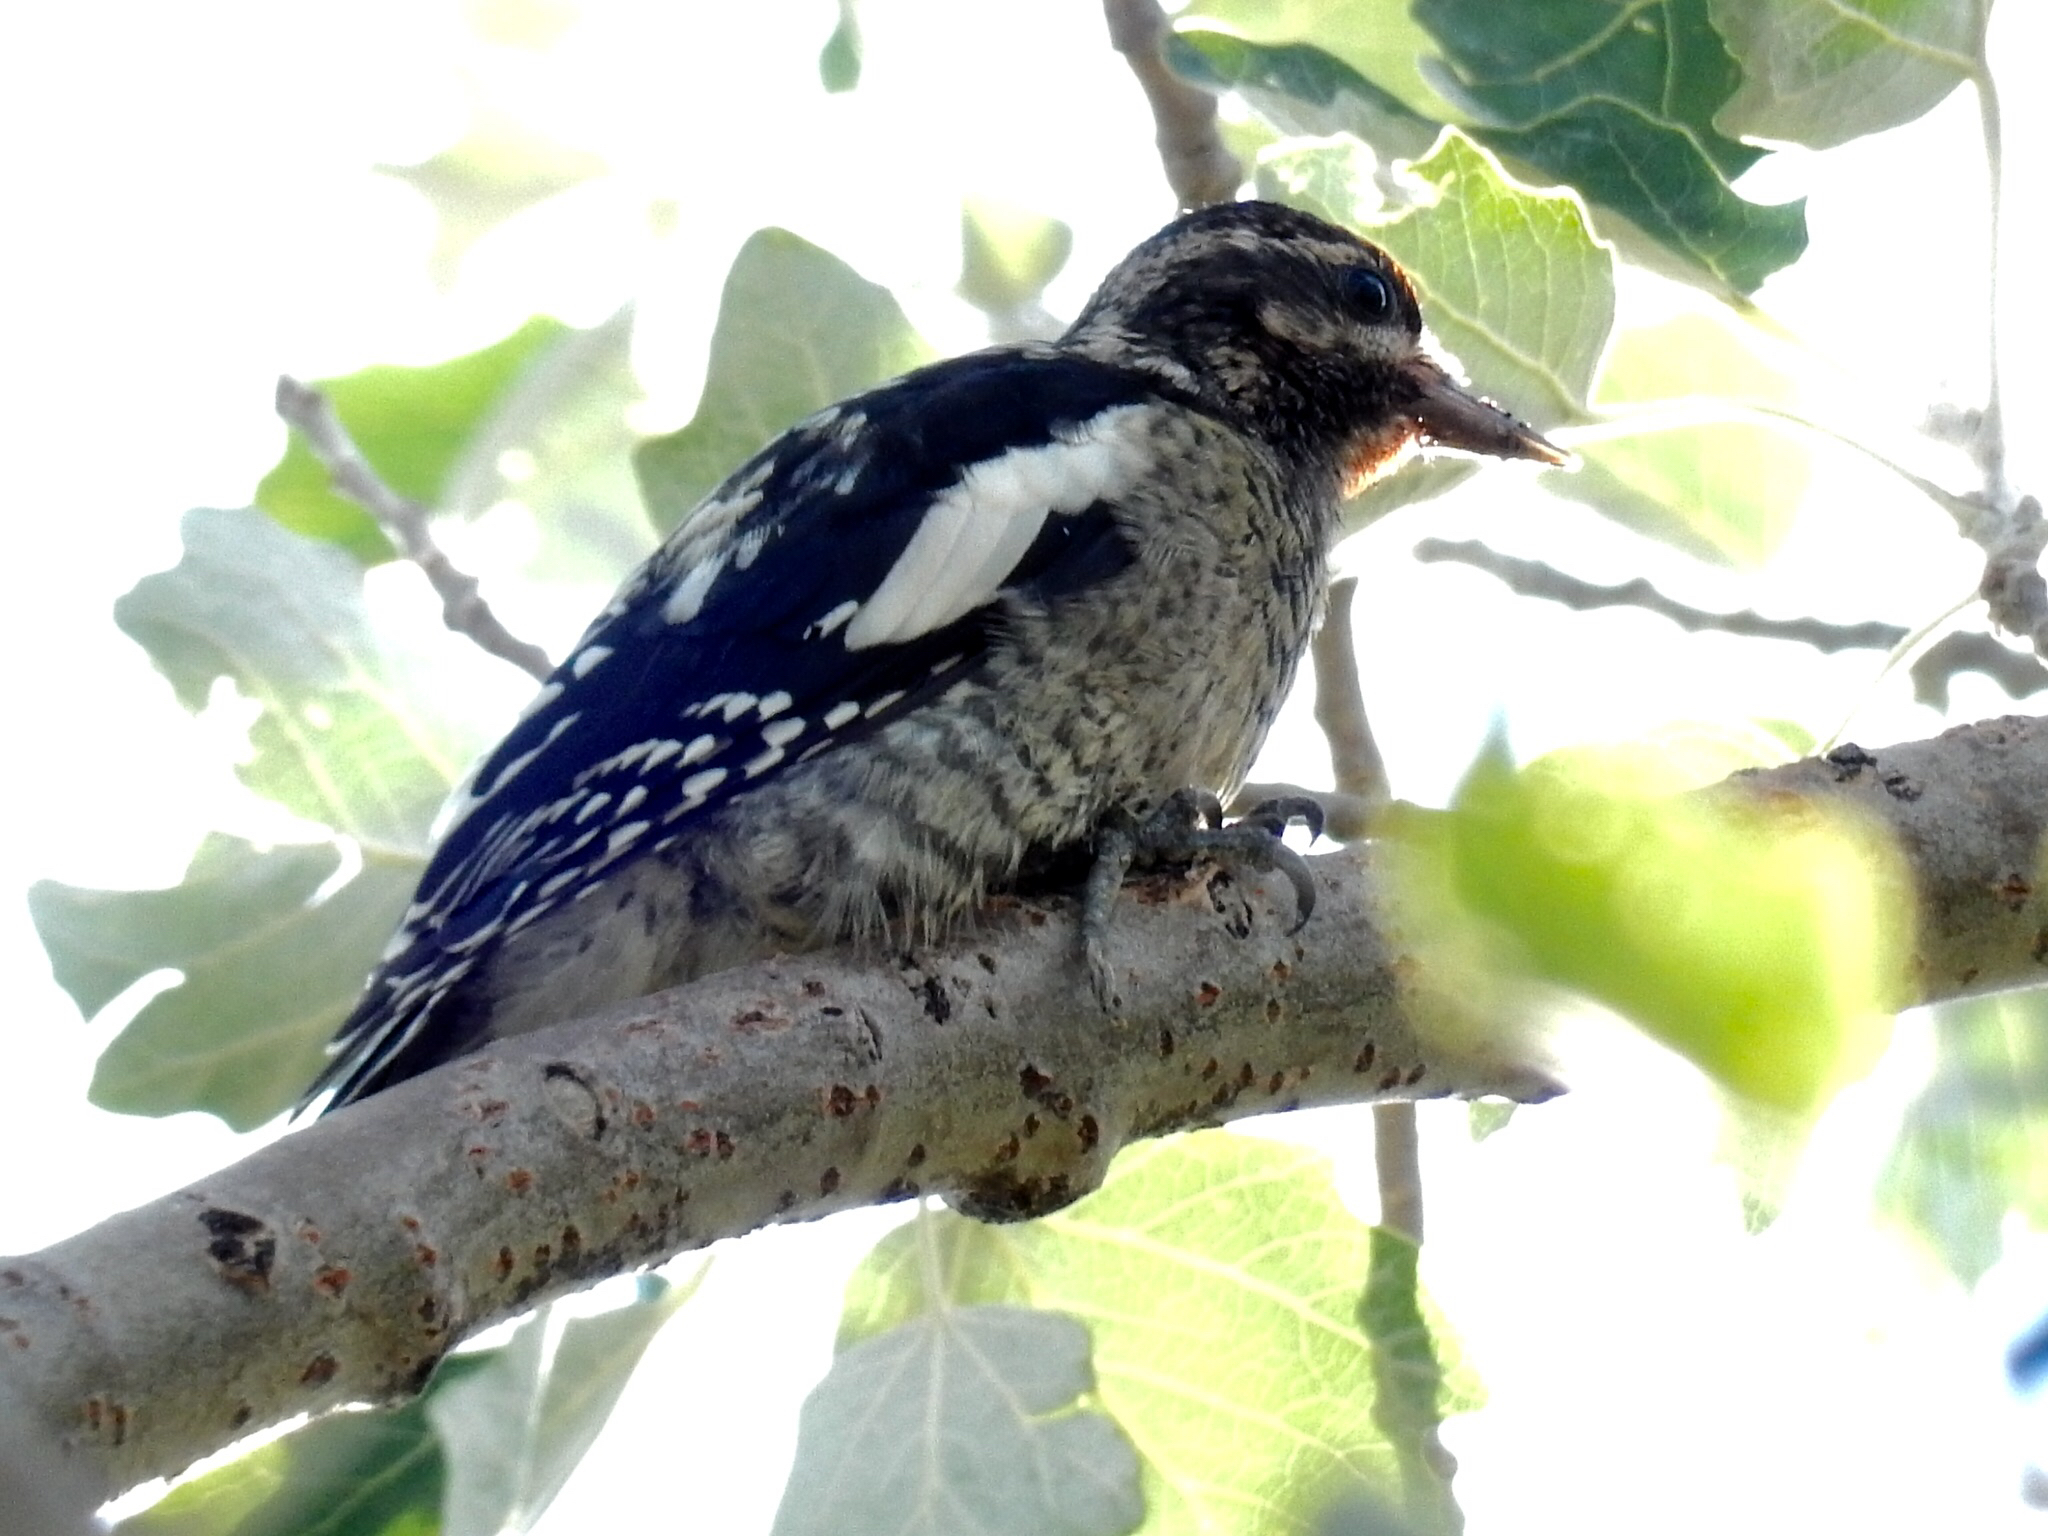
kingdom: Animalia
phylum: Chordata
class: Aves
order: Piciformes
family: Picidae
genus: Sphyrapicus
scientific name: Sphyrapicus nuchalis
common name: Red-naped sapsucker
